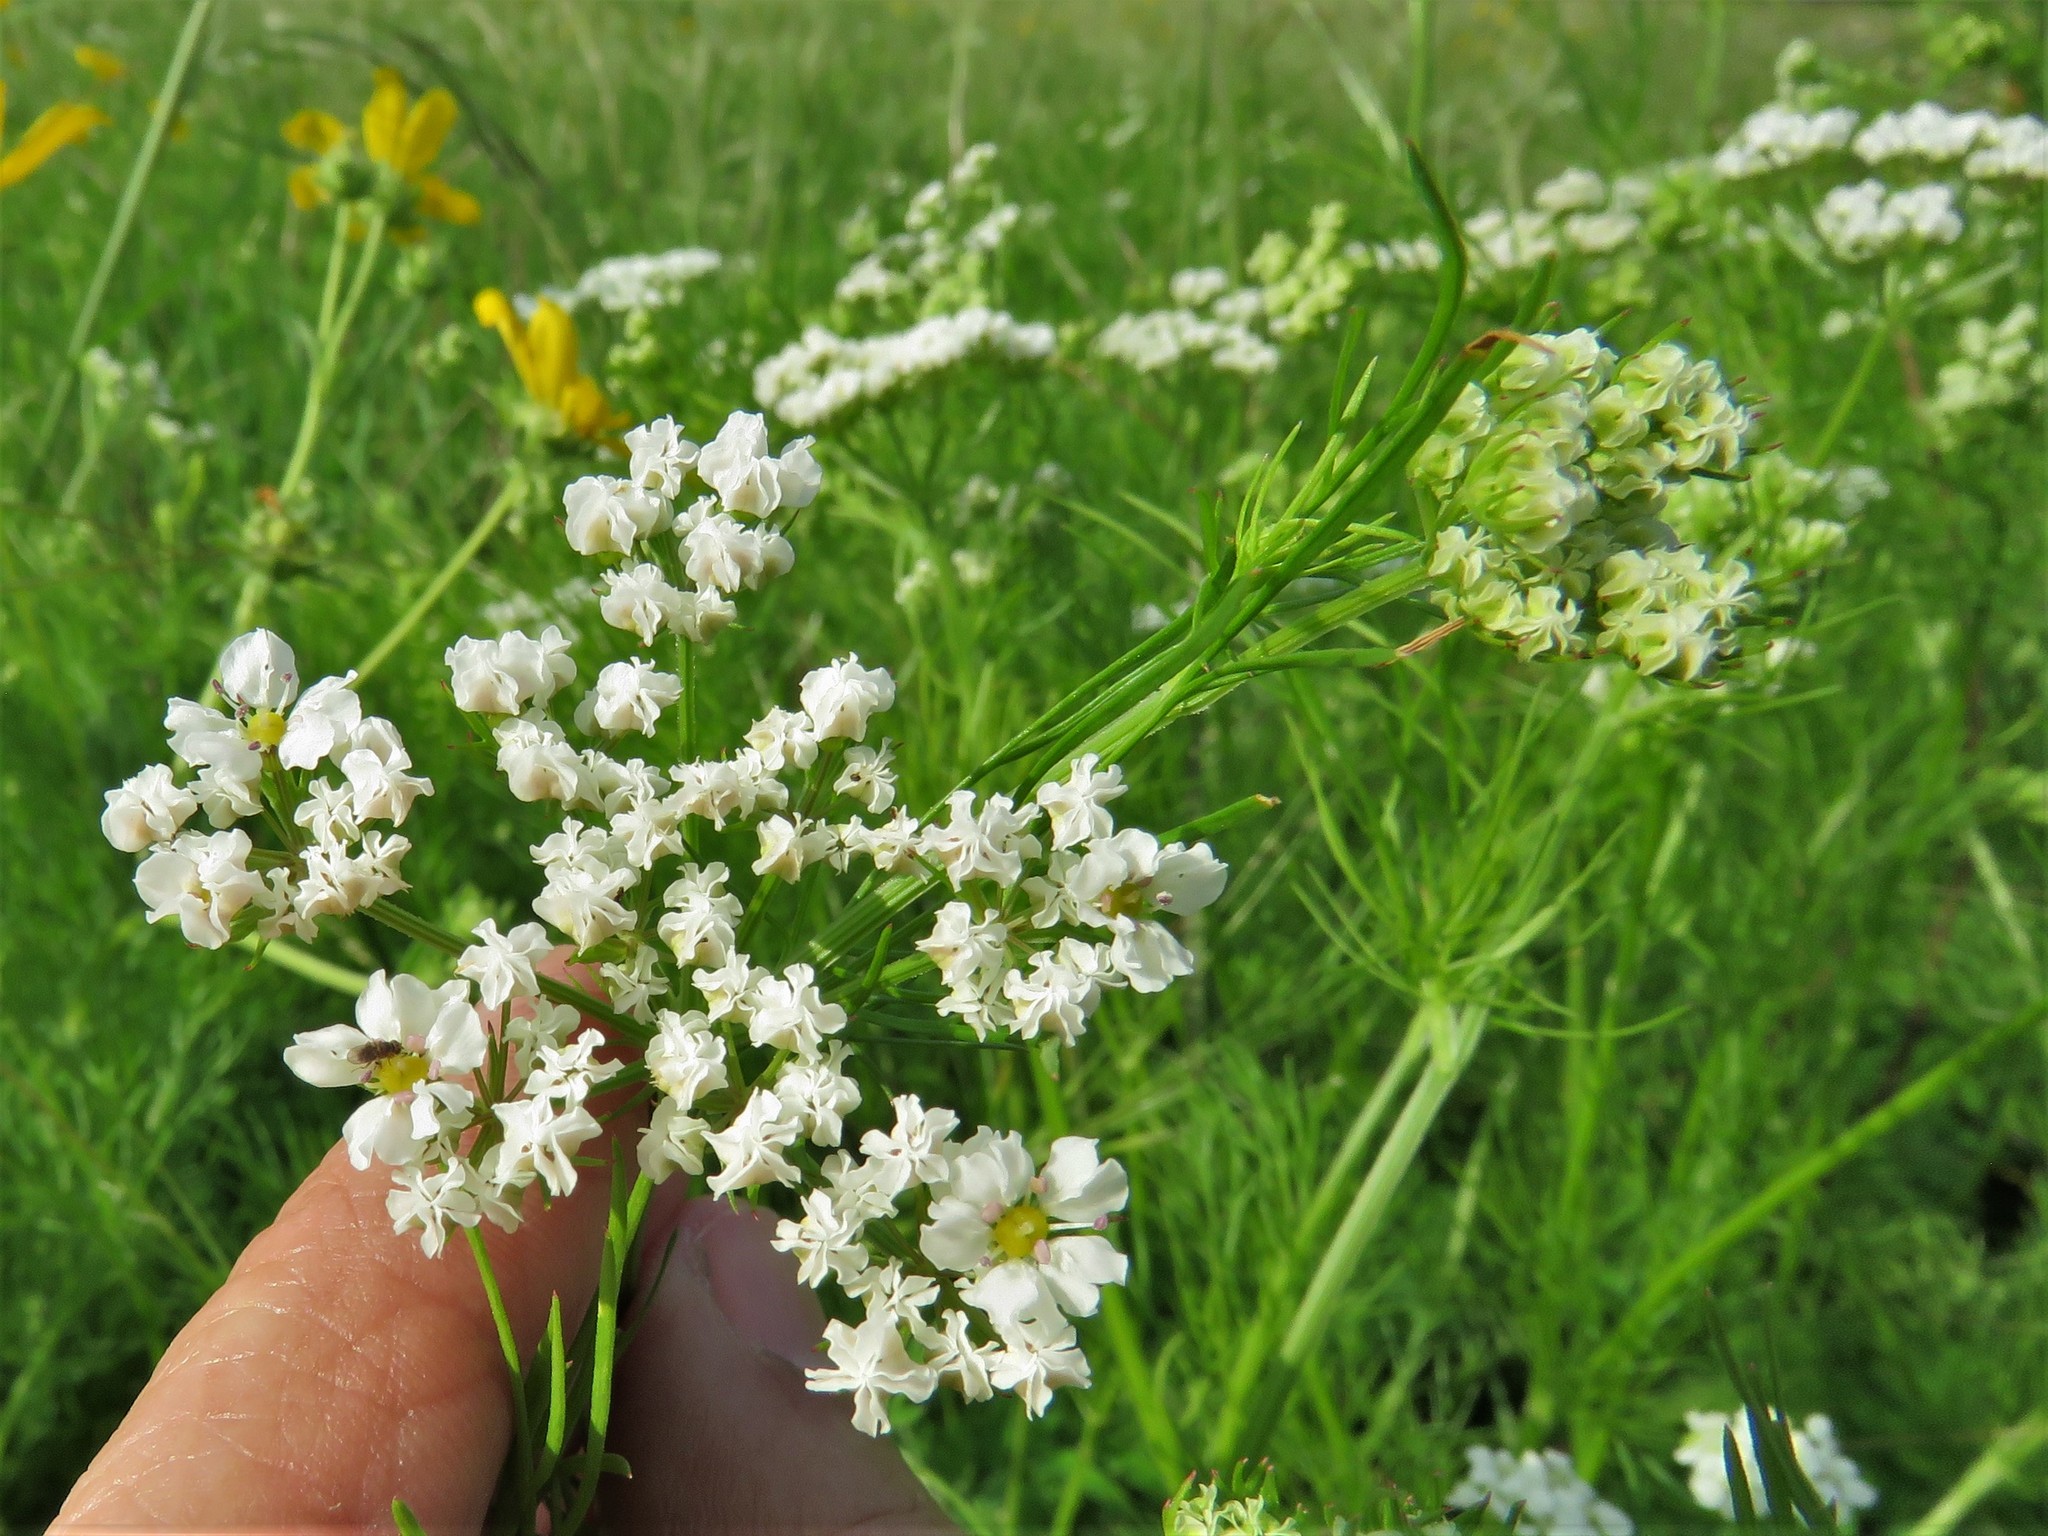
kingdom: Plantae
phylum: Tracheophyta
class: Magnoliopsida
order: Apiales
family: Apiaceae
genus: Atrema
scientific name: Atrema americanum
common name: Prairie-bishop
